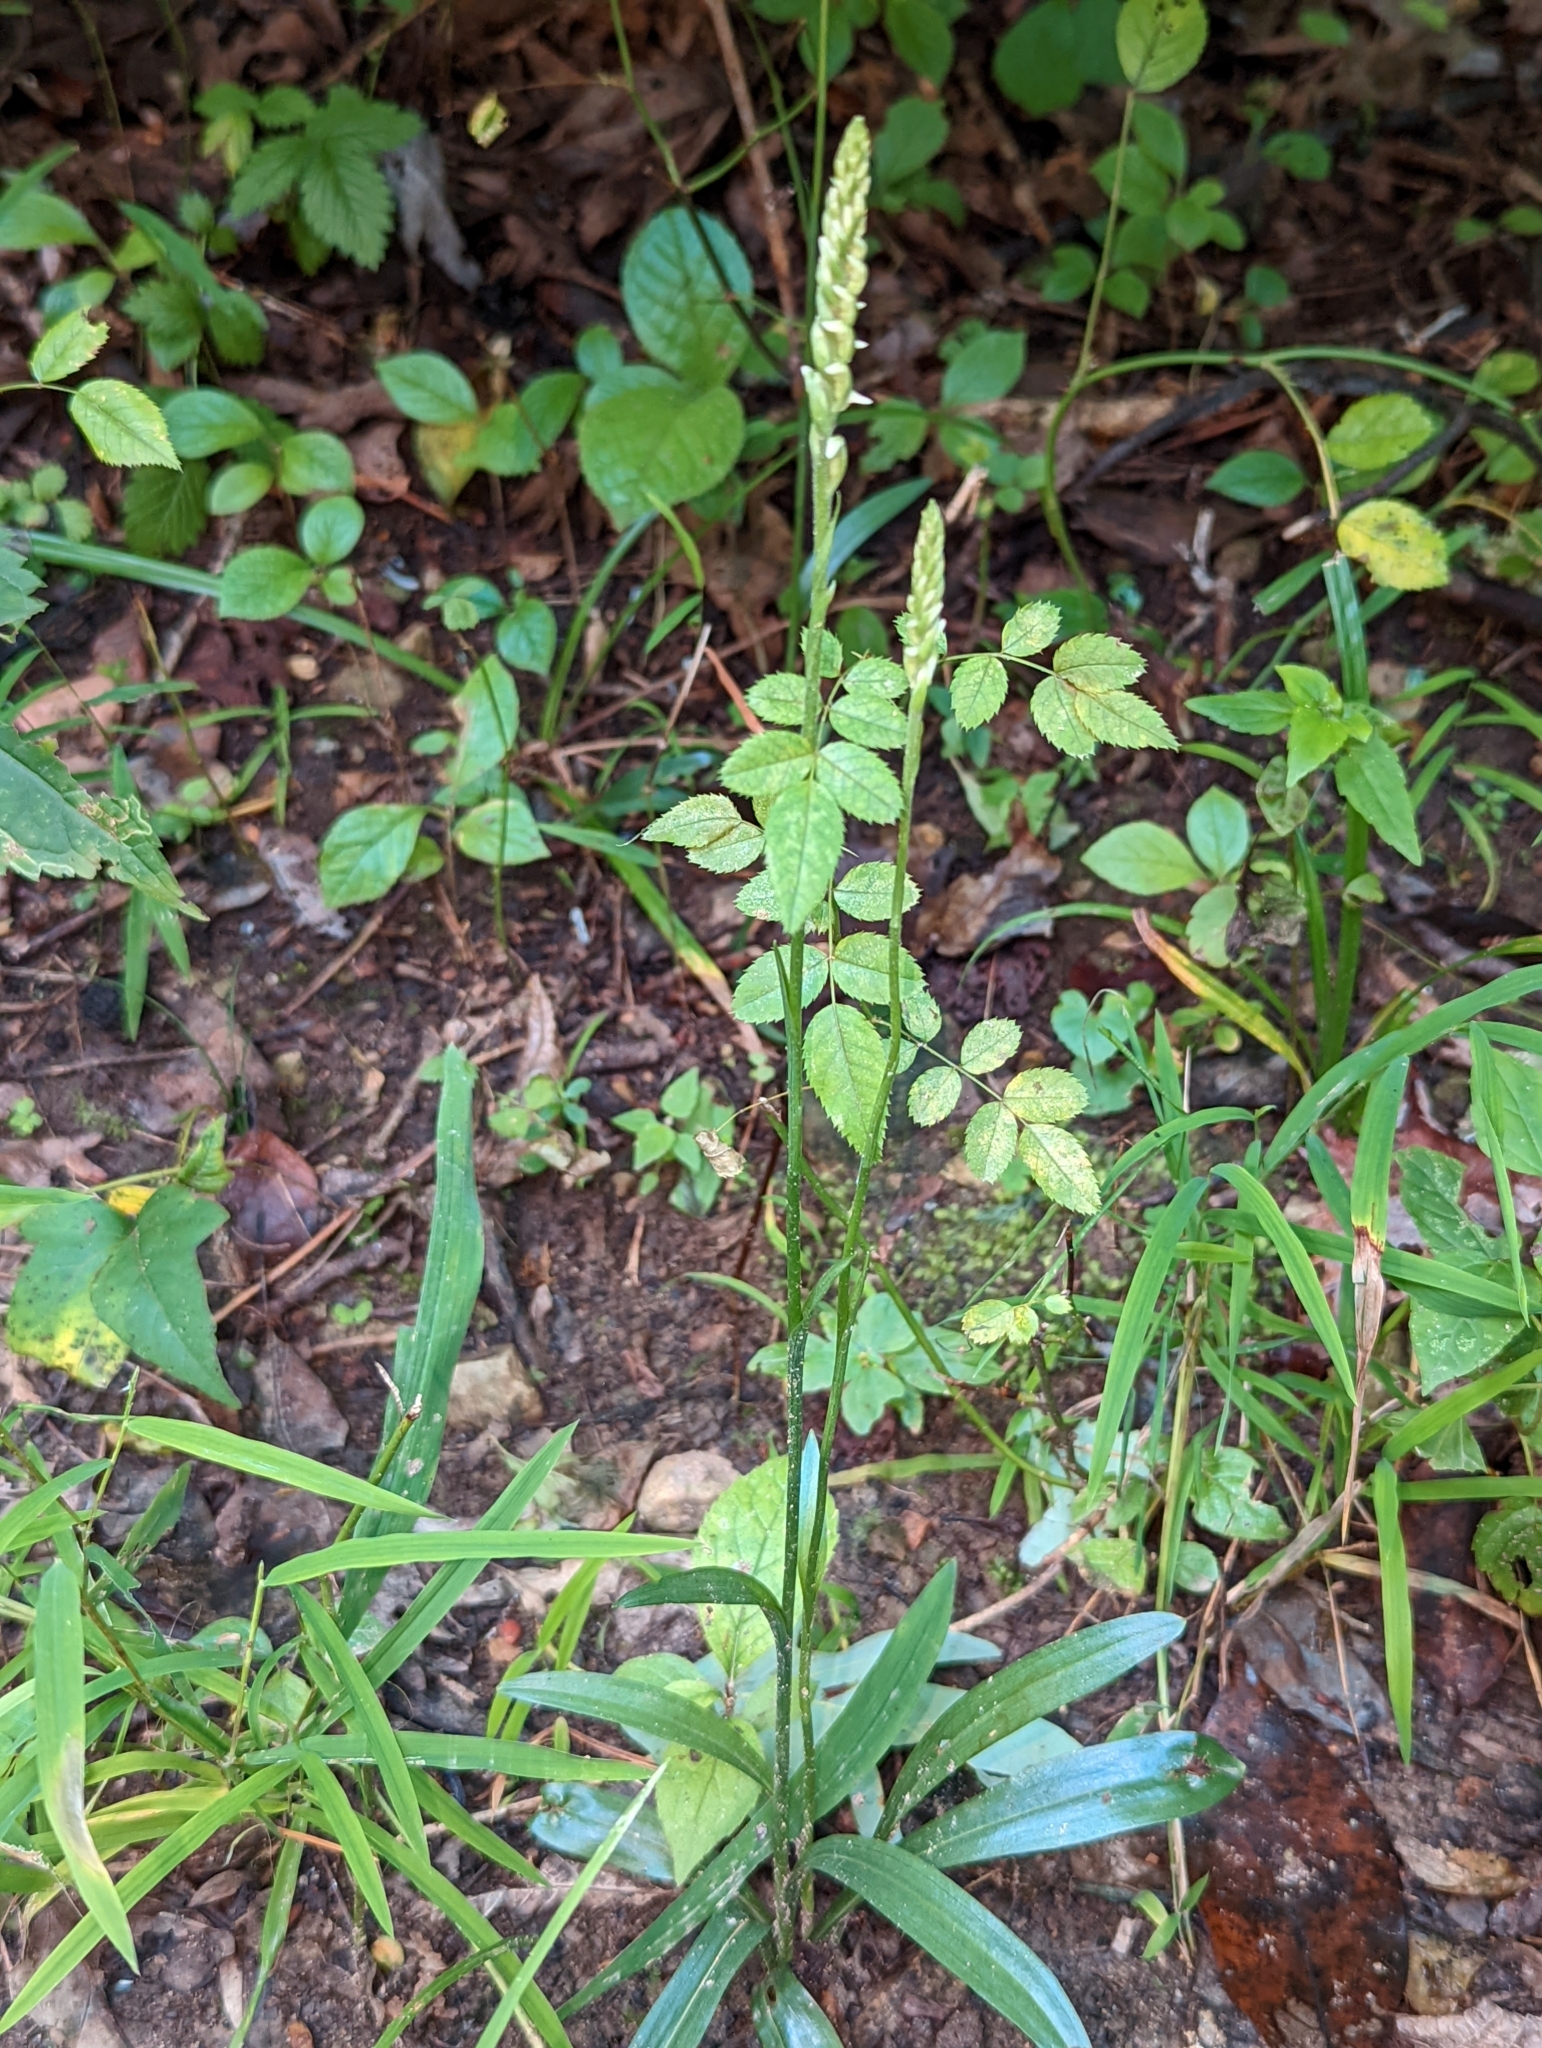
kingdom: Plantae
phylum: Tracheophyta
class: Liliopsida
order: Asparagales
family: Orchidaceae
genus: Spiranthes
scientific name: Spiranthes ovalis
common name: October ladies'-tresses
